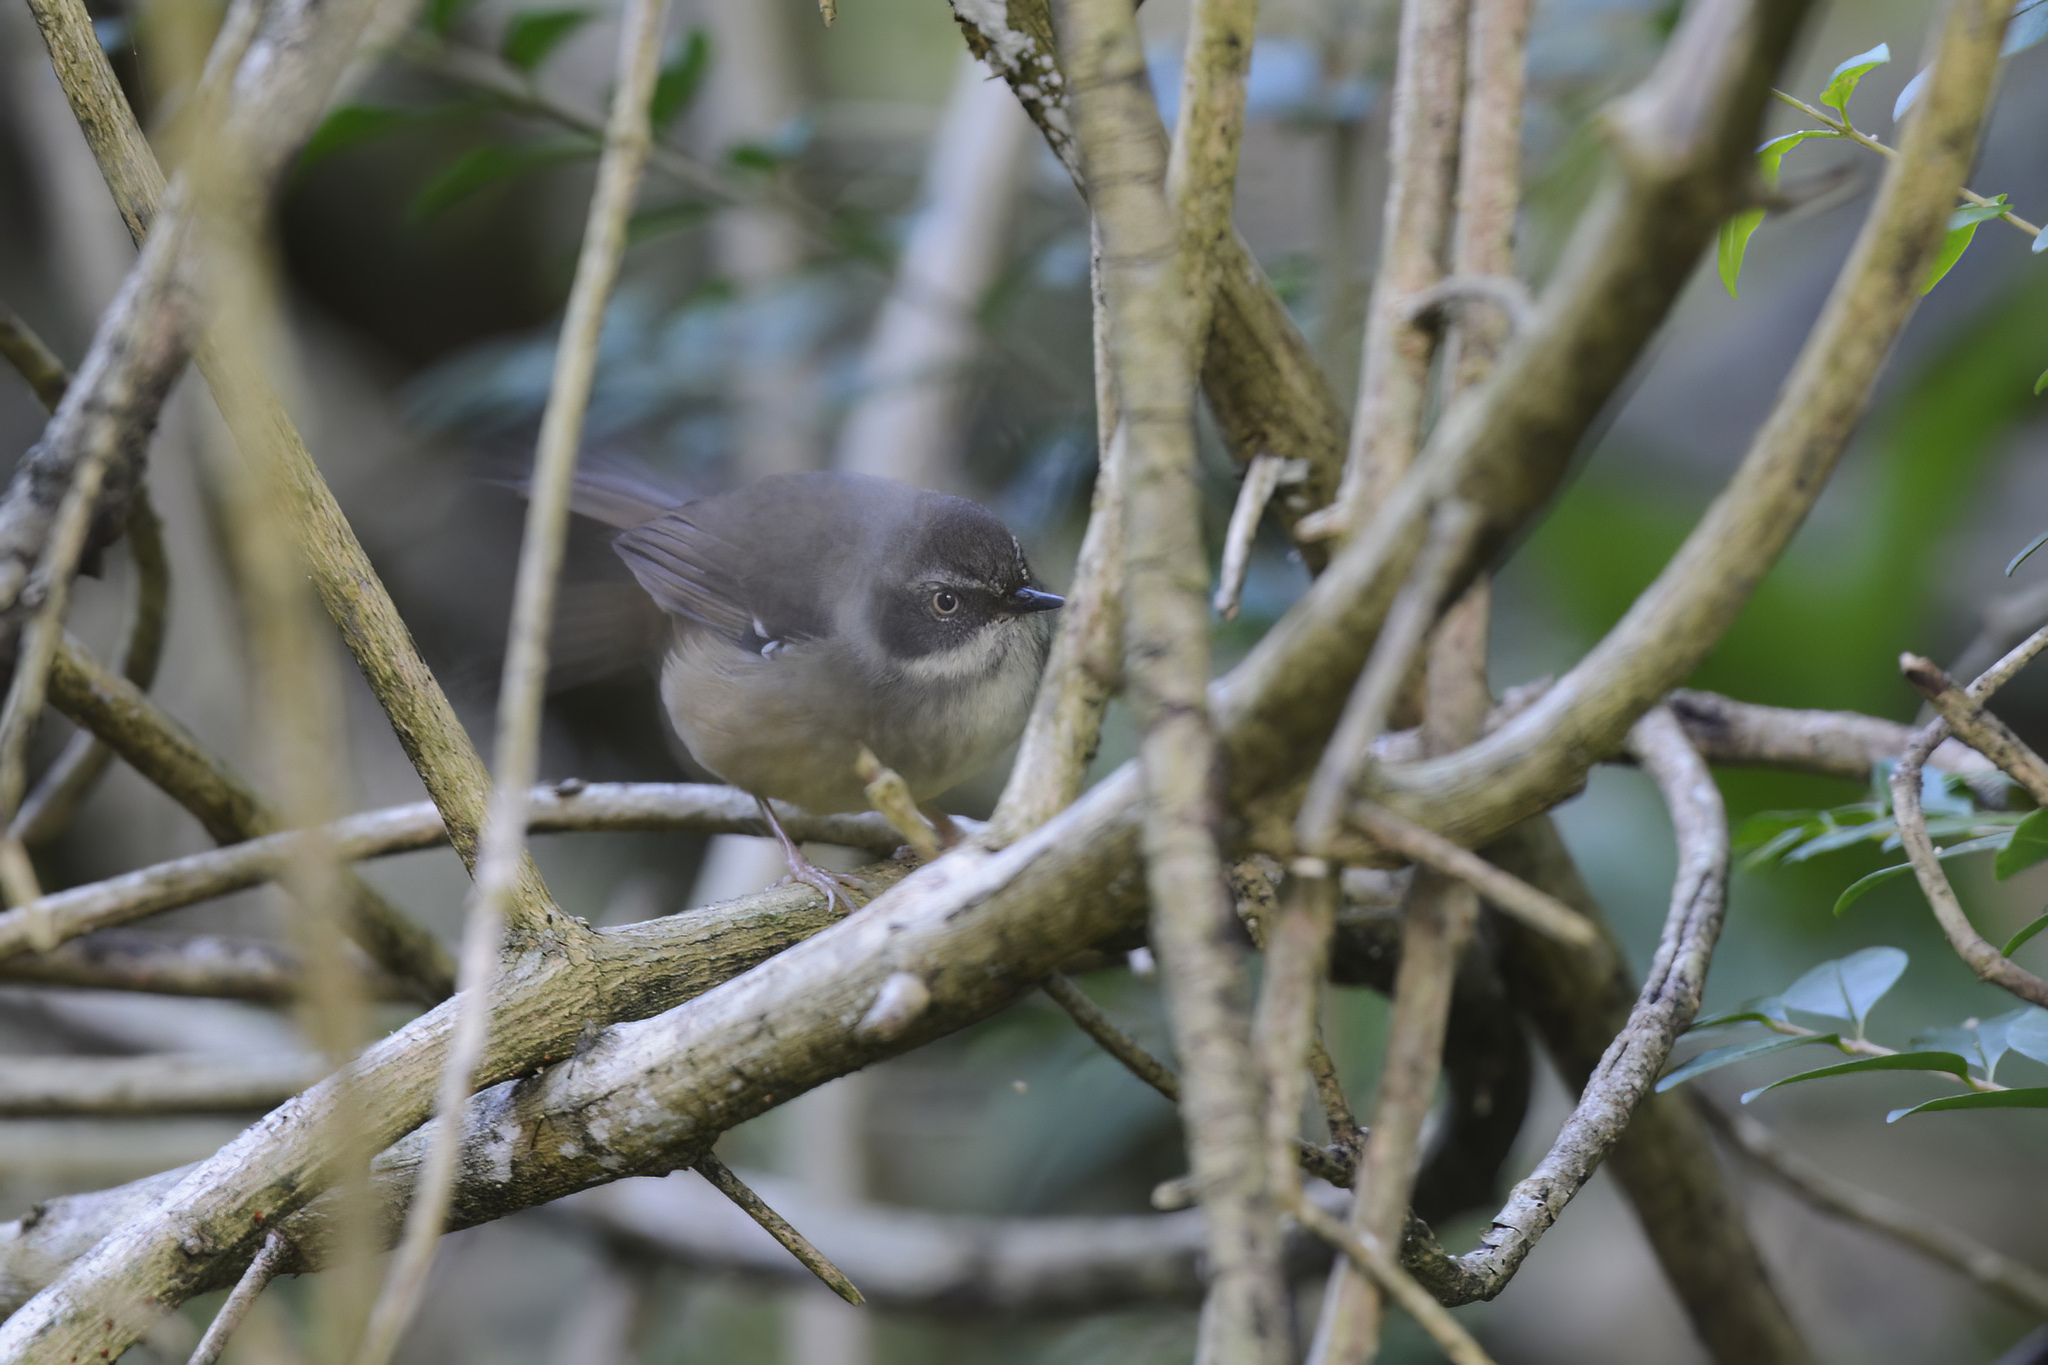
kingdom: Animalia
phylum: Chordata
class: Aves
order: Passeriformes
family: Acanthizidae
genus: Sericornis
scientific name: Sericornis frontalis
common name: White-browed scrubwren
